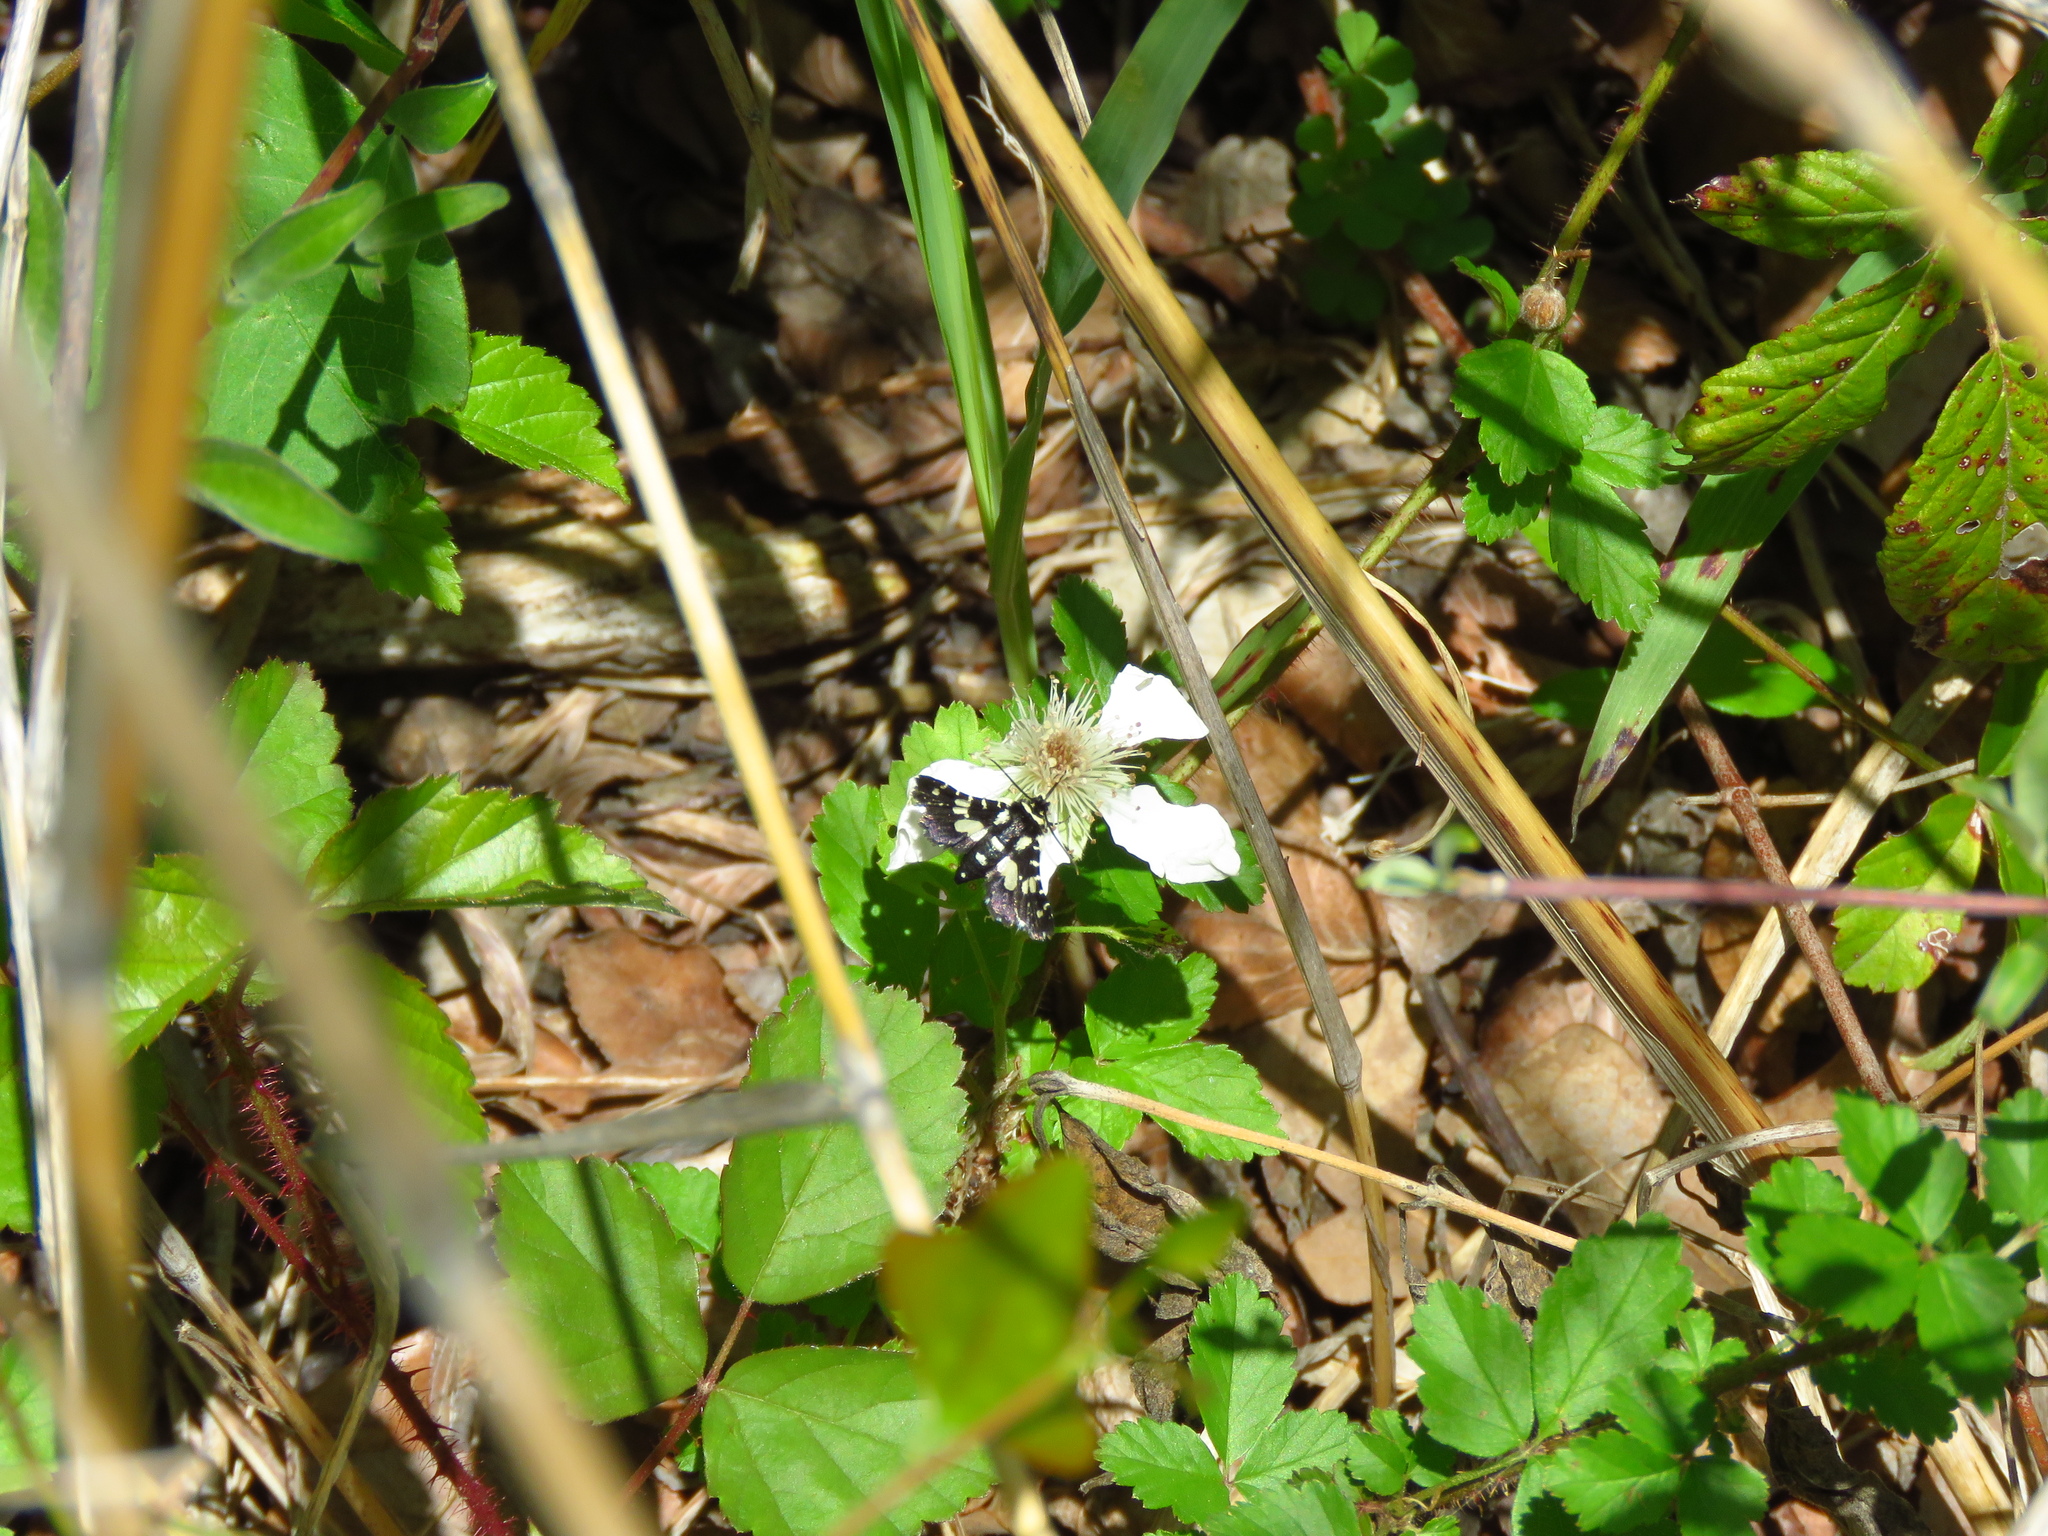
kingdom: Plantae
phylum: Tracheophyta
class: Magnoliopsida
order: Rosales
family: Rosaceae
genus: Rubus
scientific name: Rubus trivialis
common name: Southern dewberry
